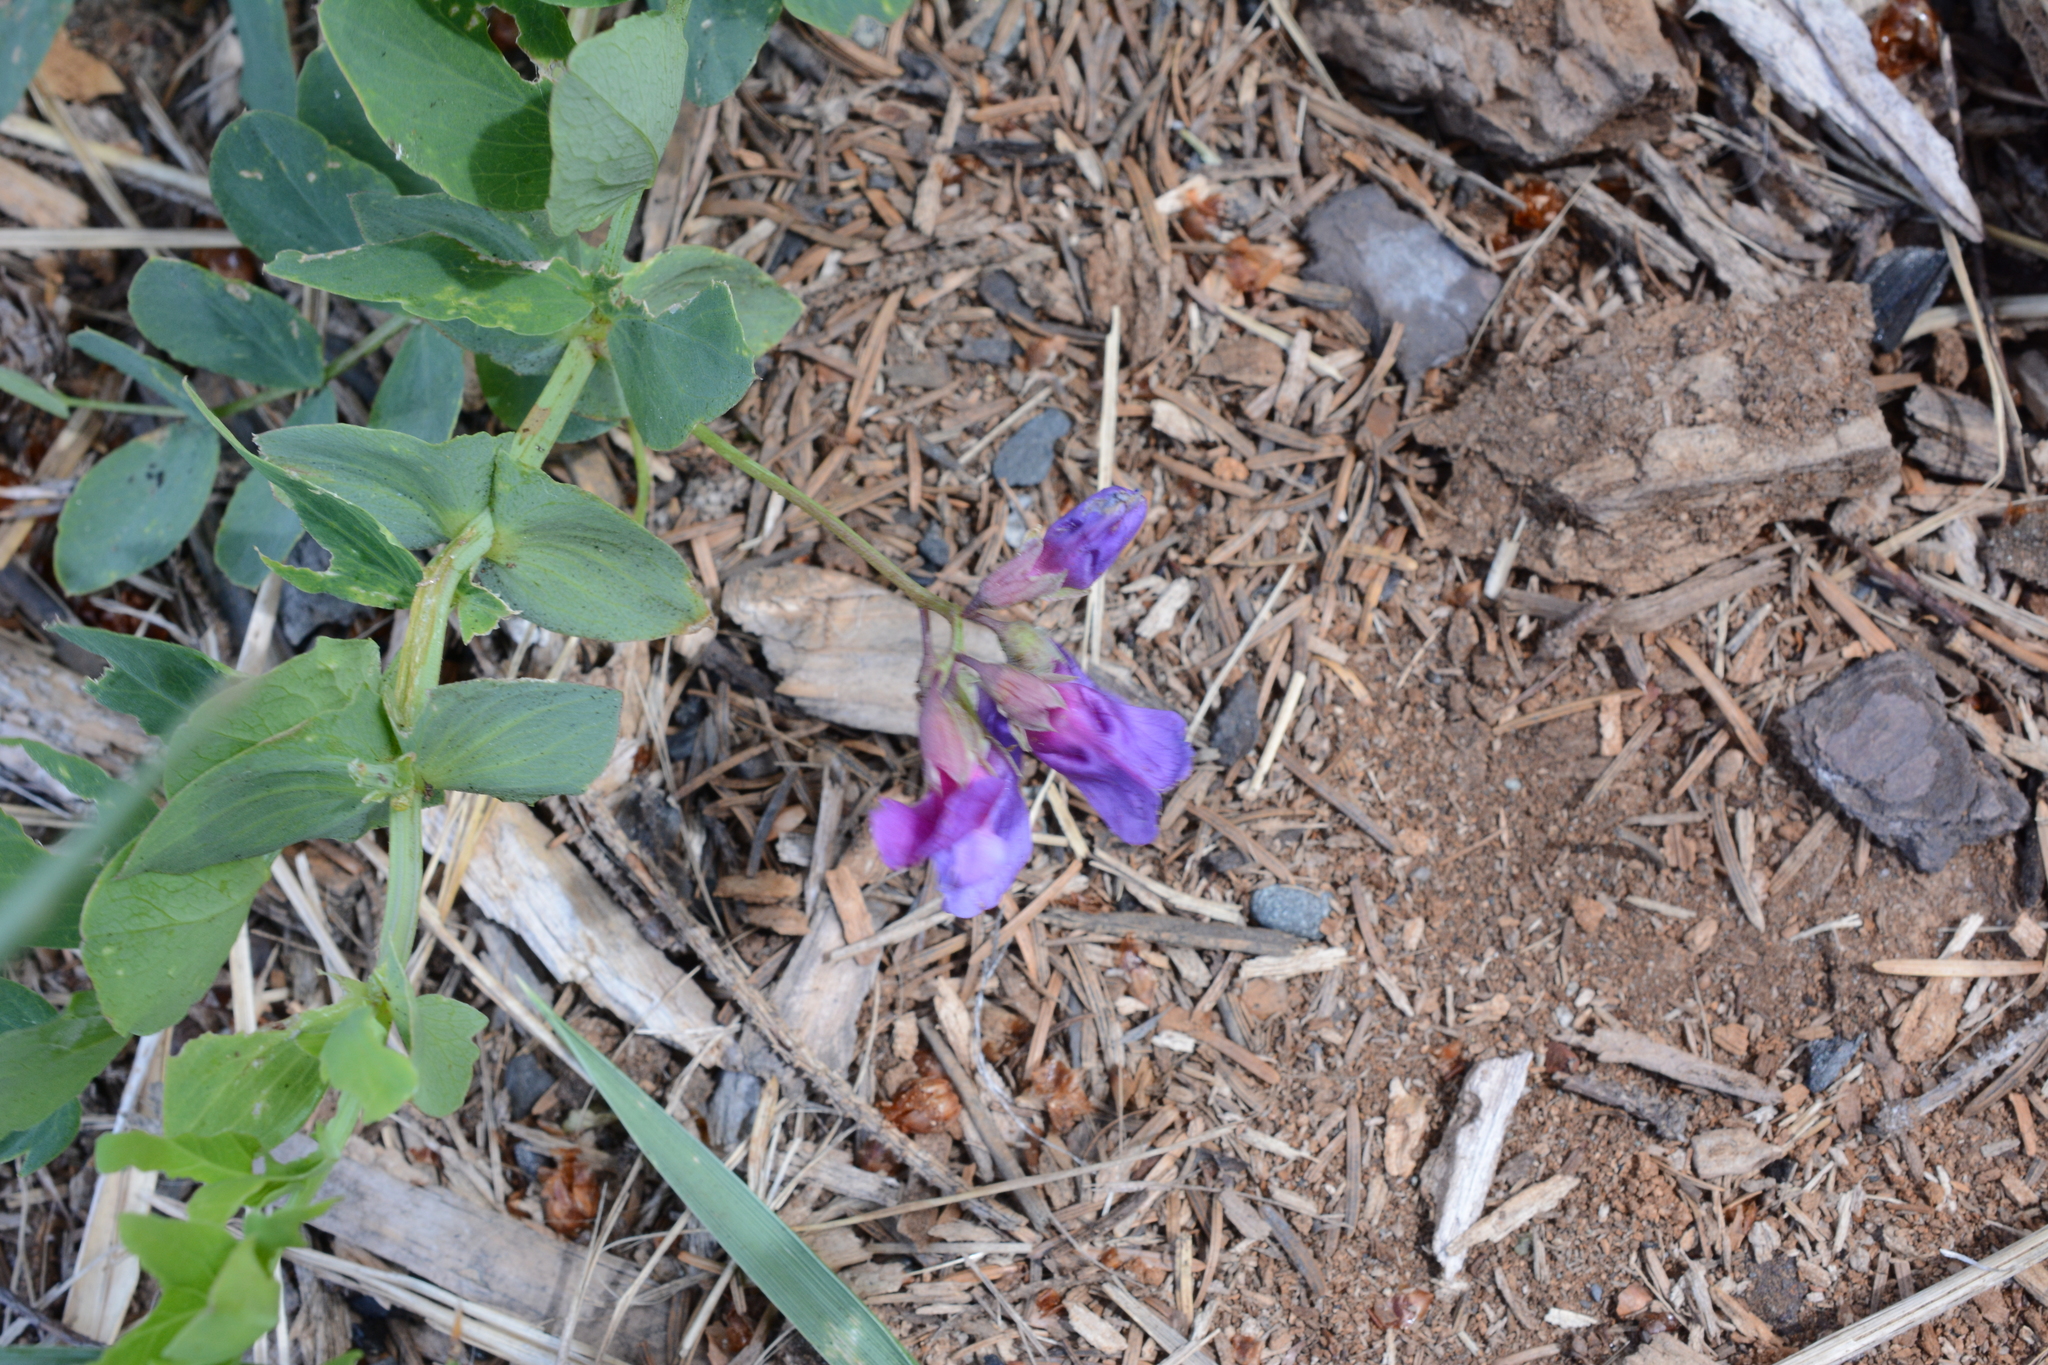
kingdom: Plantae
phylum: Tracheophyta
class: Magnoliopsida
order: Fabales
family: Fabaceae
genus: Lathyrus
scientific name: Lathyrus japonicus
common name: Sea pea
